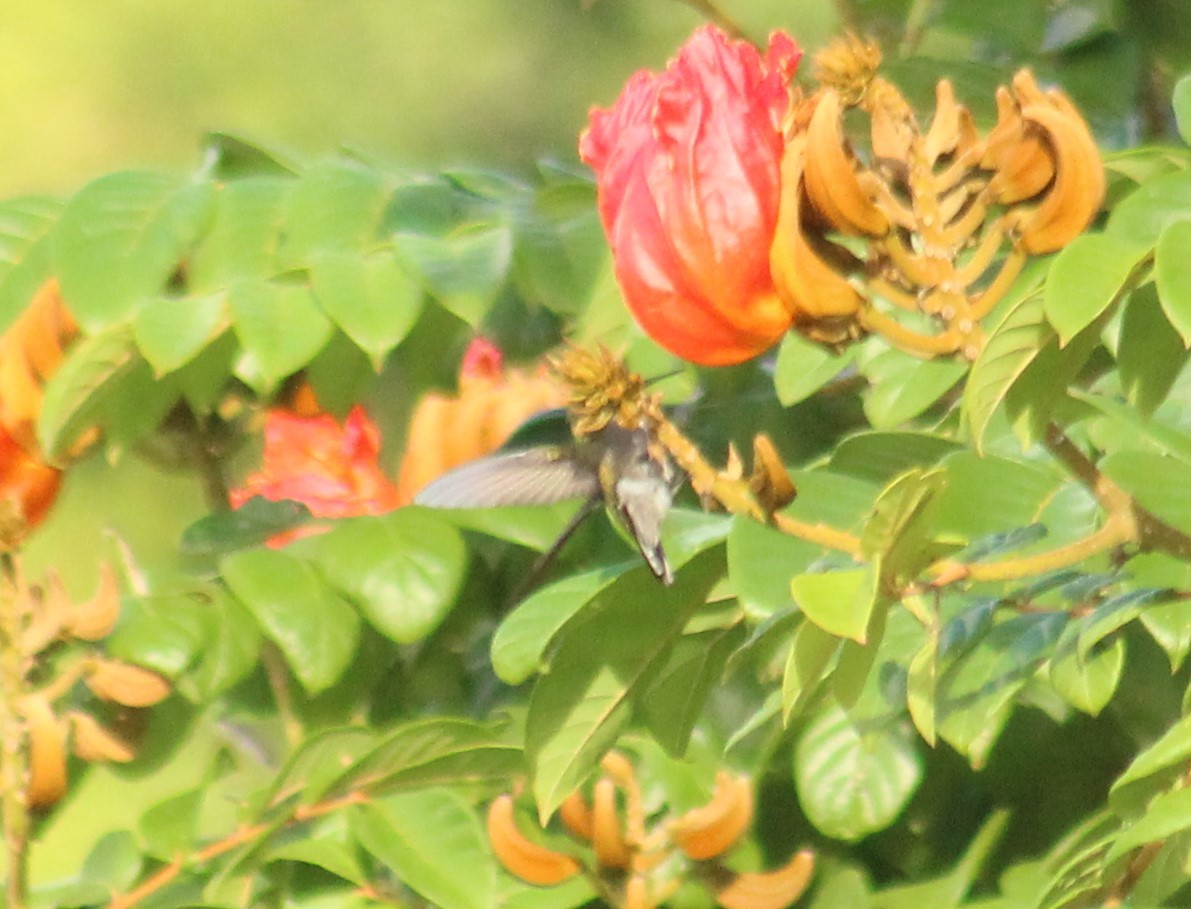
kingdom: Animalia
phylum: Chordata
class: Aves
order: Apodiformes
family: Trochilidae
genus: Orthorhyncus
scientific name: Orthorhyncus cristatus
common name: Antillean crested hummingbird
